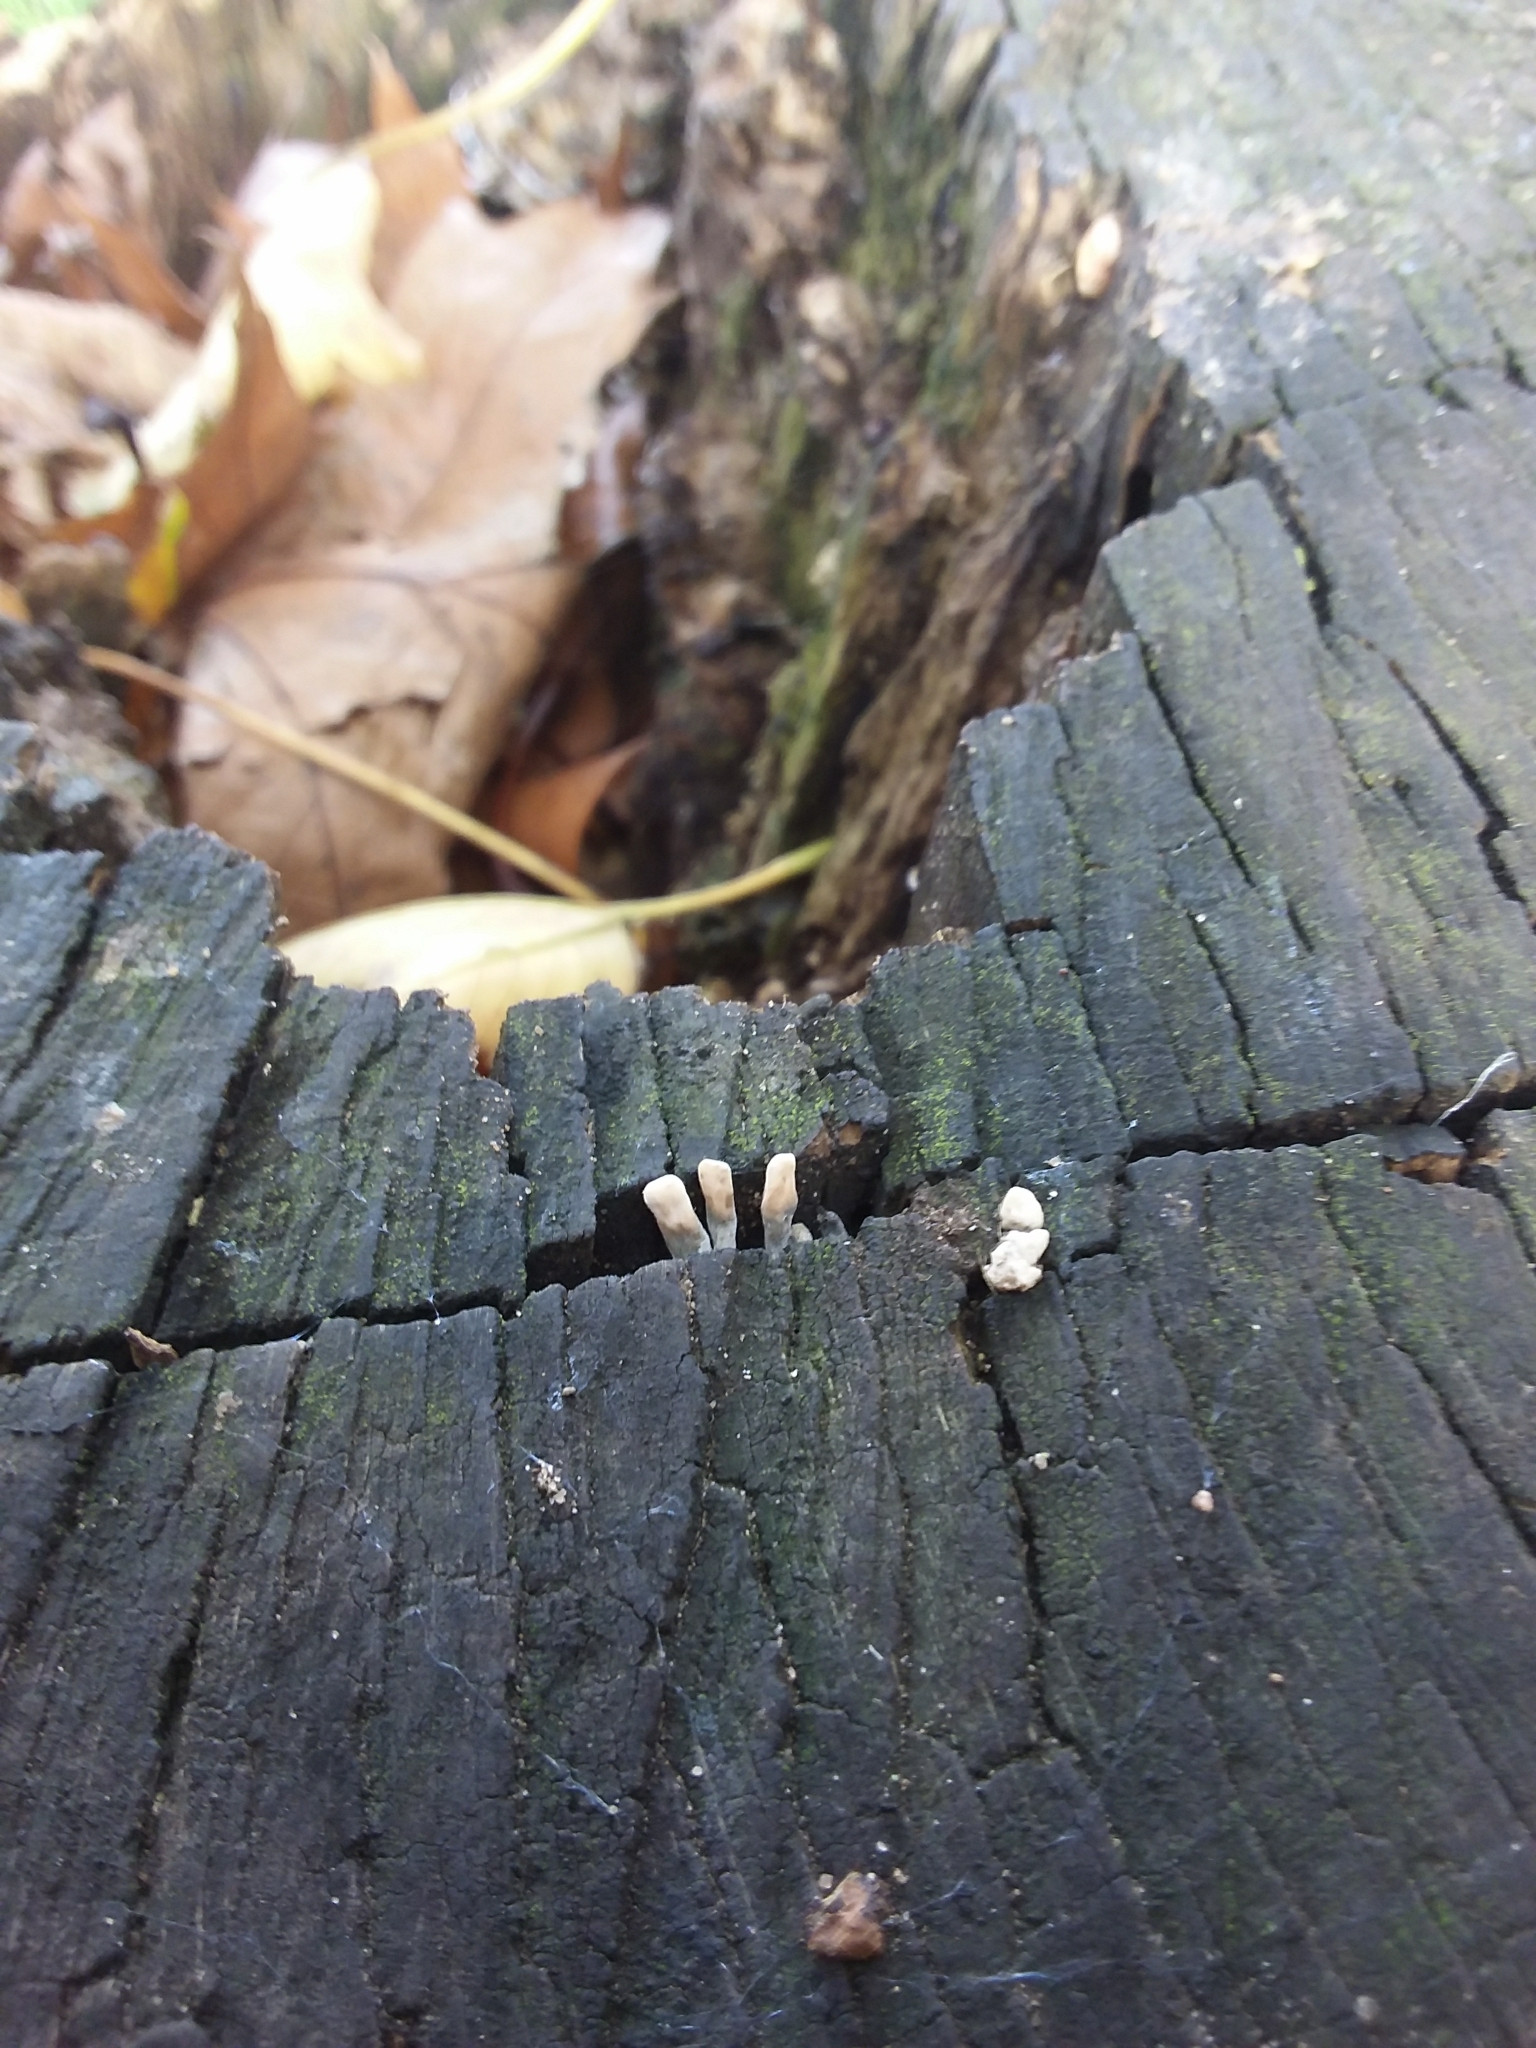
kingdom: Fungi
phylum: Ascomycota
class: Sordariomycetes
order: Xylariales
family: Xylariaceae
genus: Xylaria
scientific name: Xylaria hypoxylon
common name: Candle-snuff fungus
